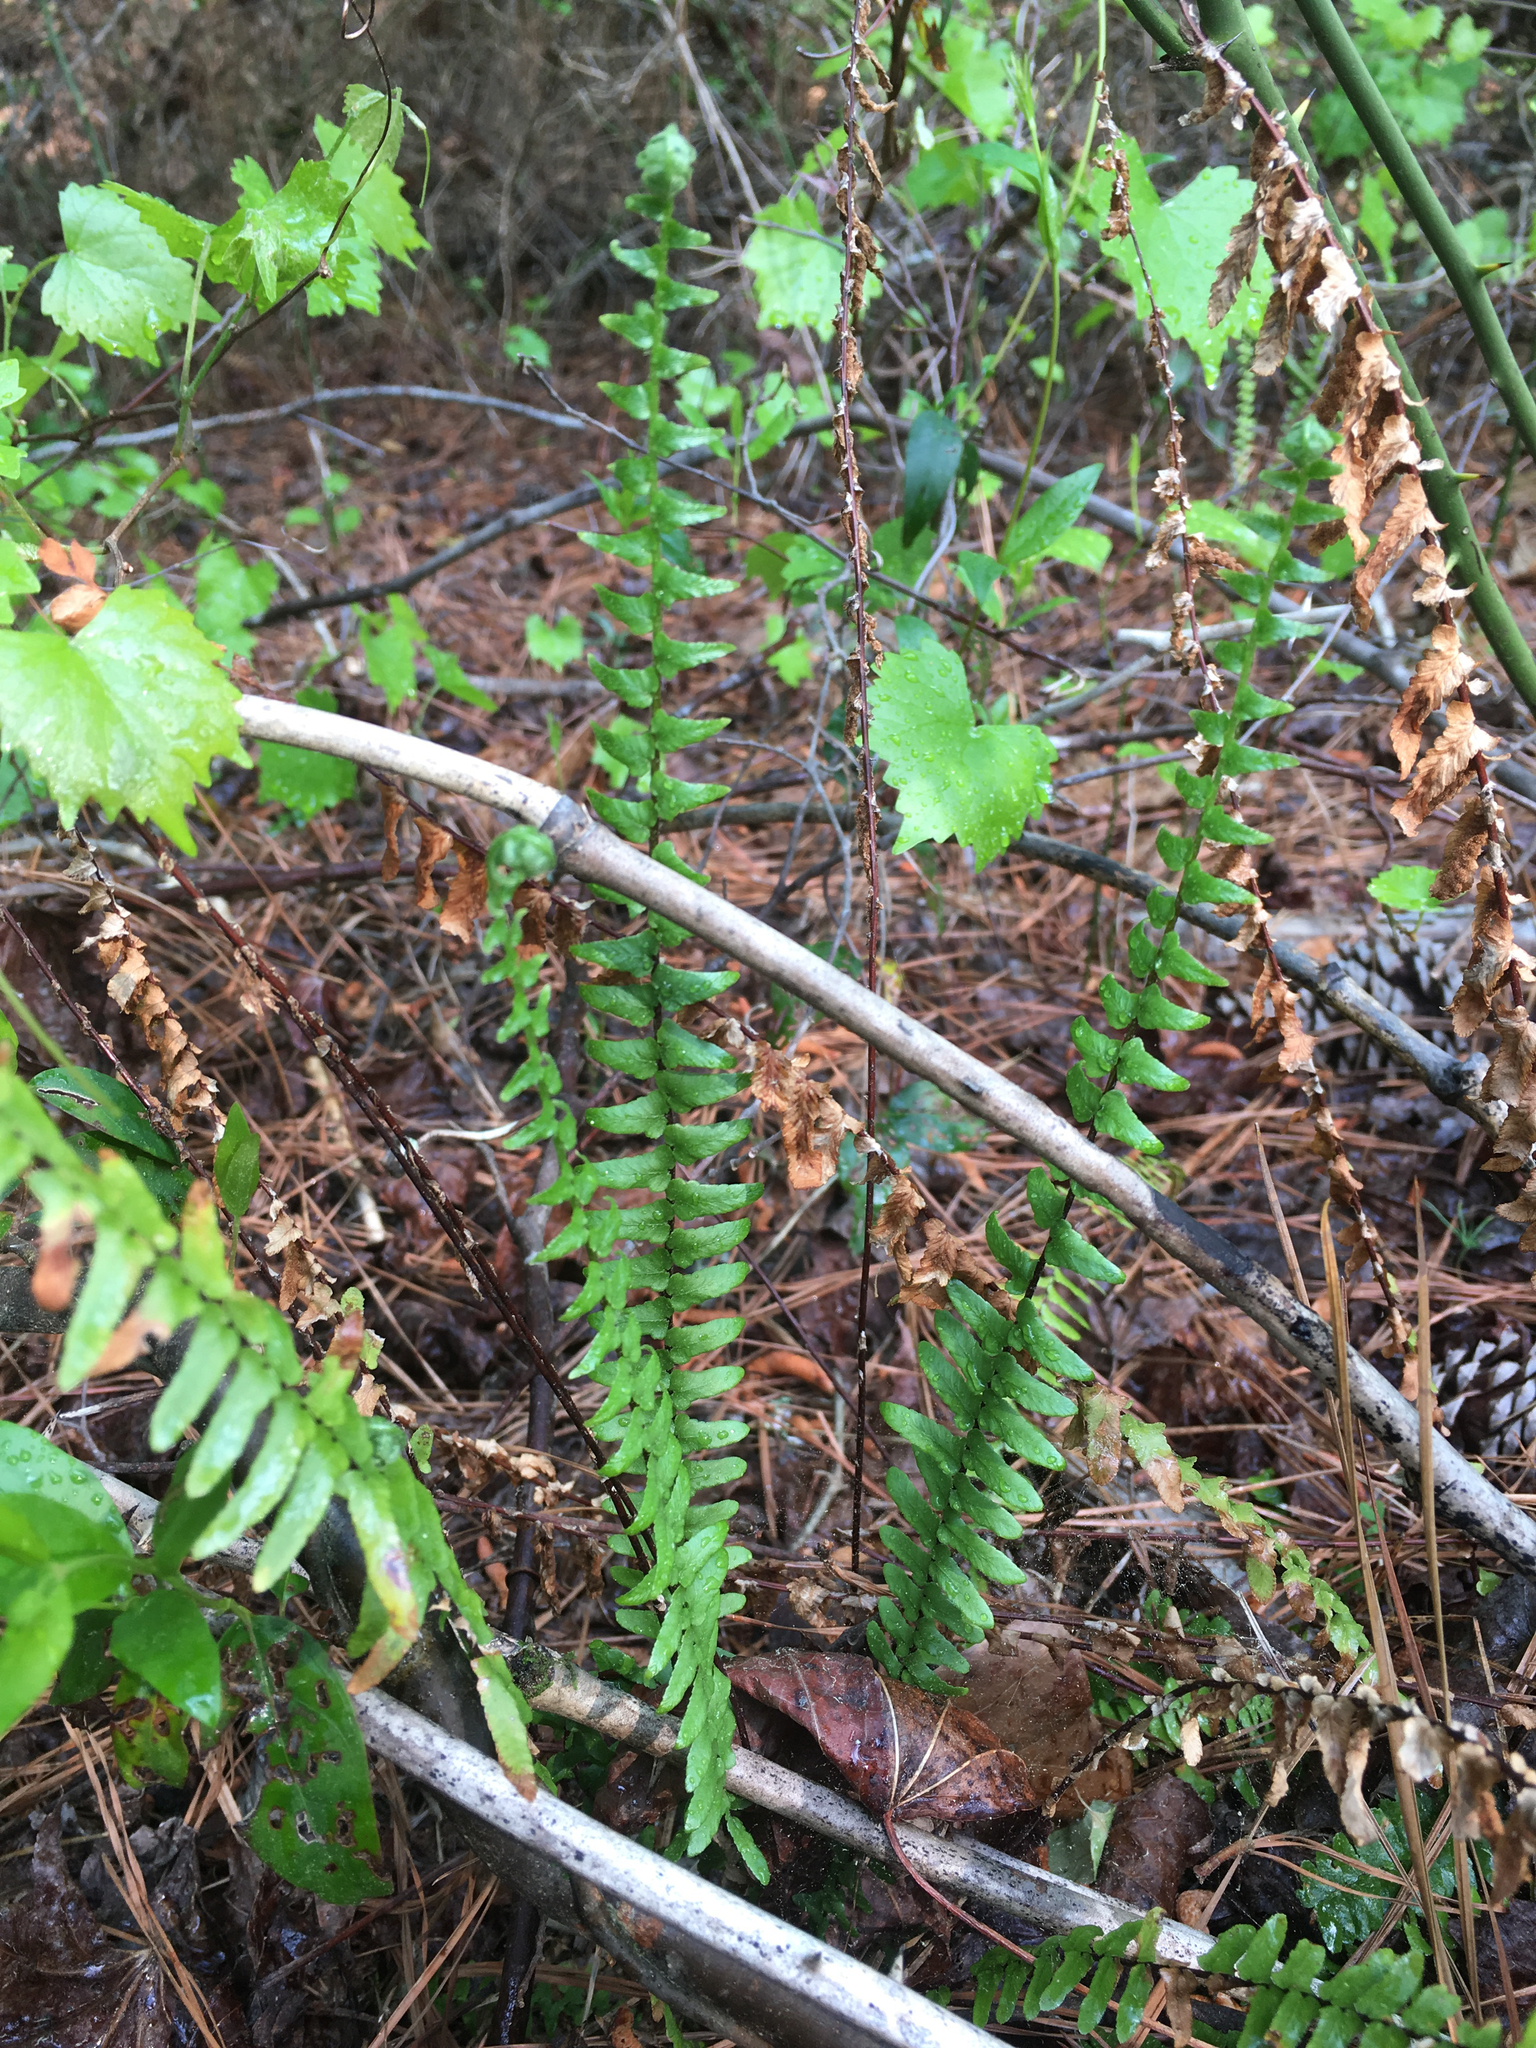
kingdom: Plantae
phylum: Tracheophyta
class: Polypodiopsida
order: Polypodiales
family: Aspleniaceae
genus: Asplenium
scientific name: Asplenium platyneuron
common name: Ebony spleenwort
